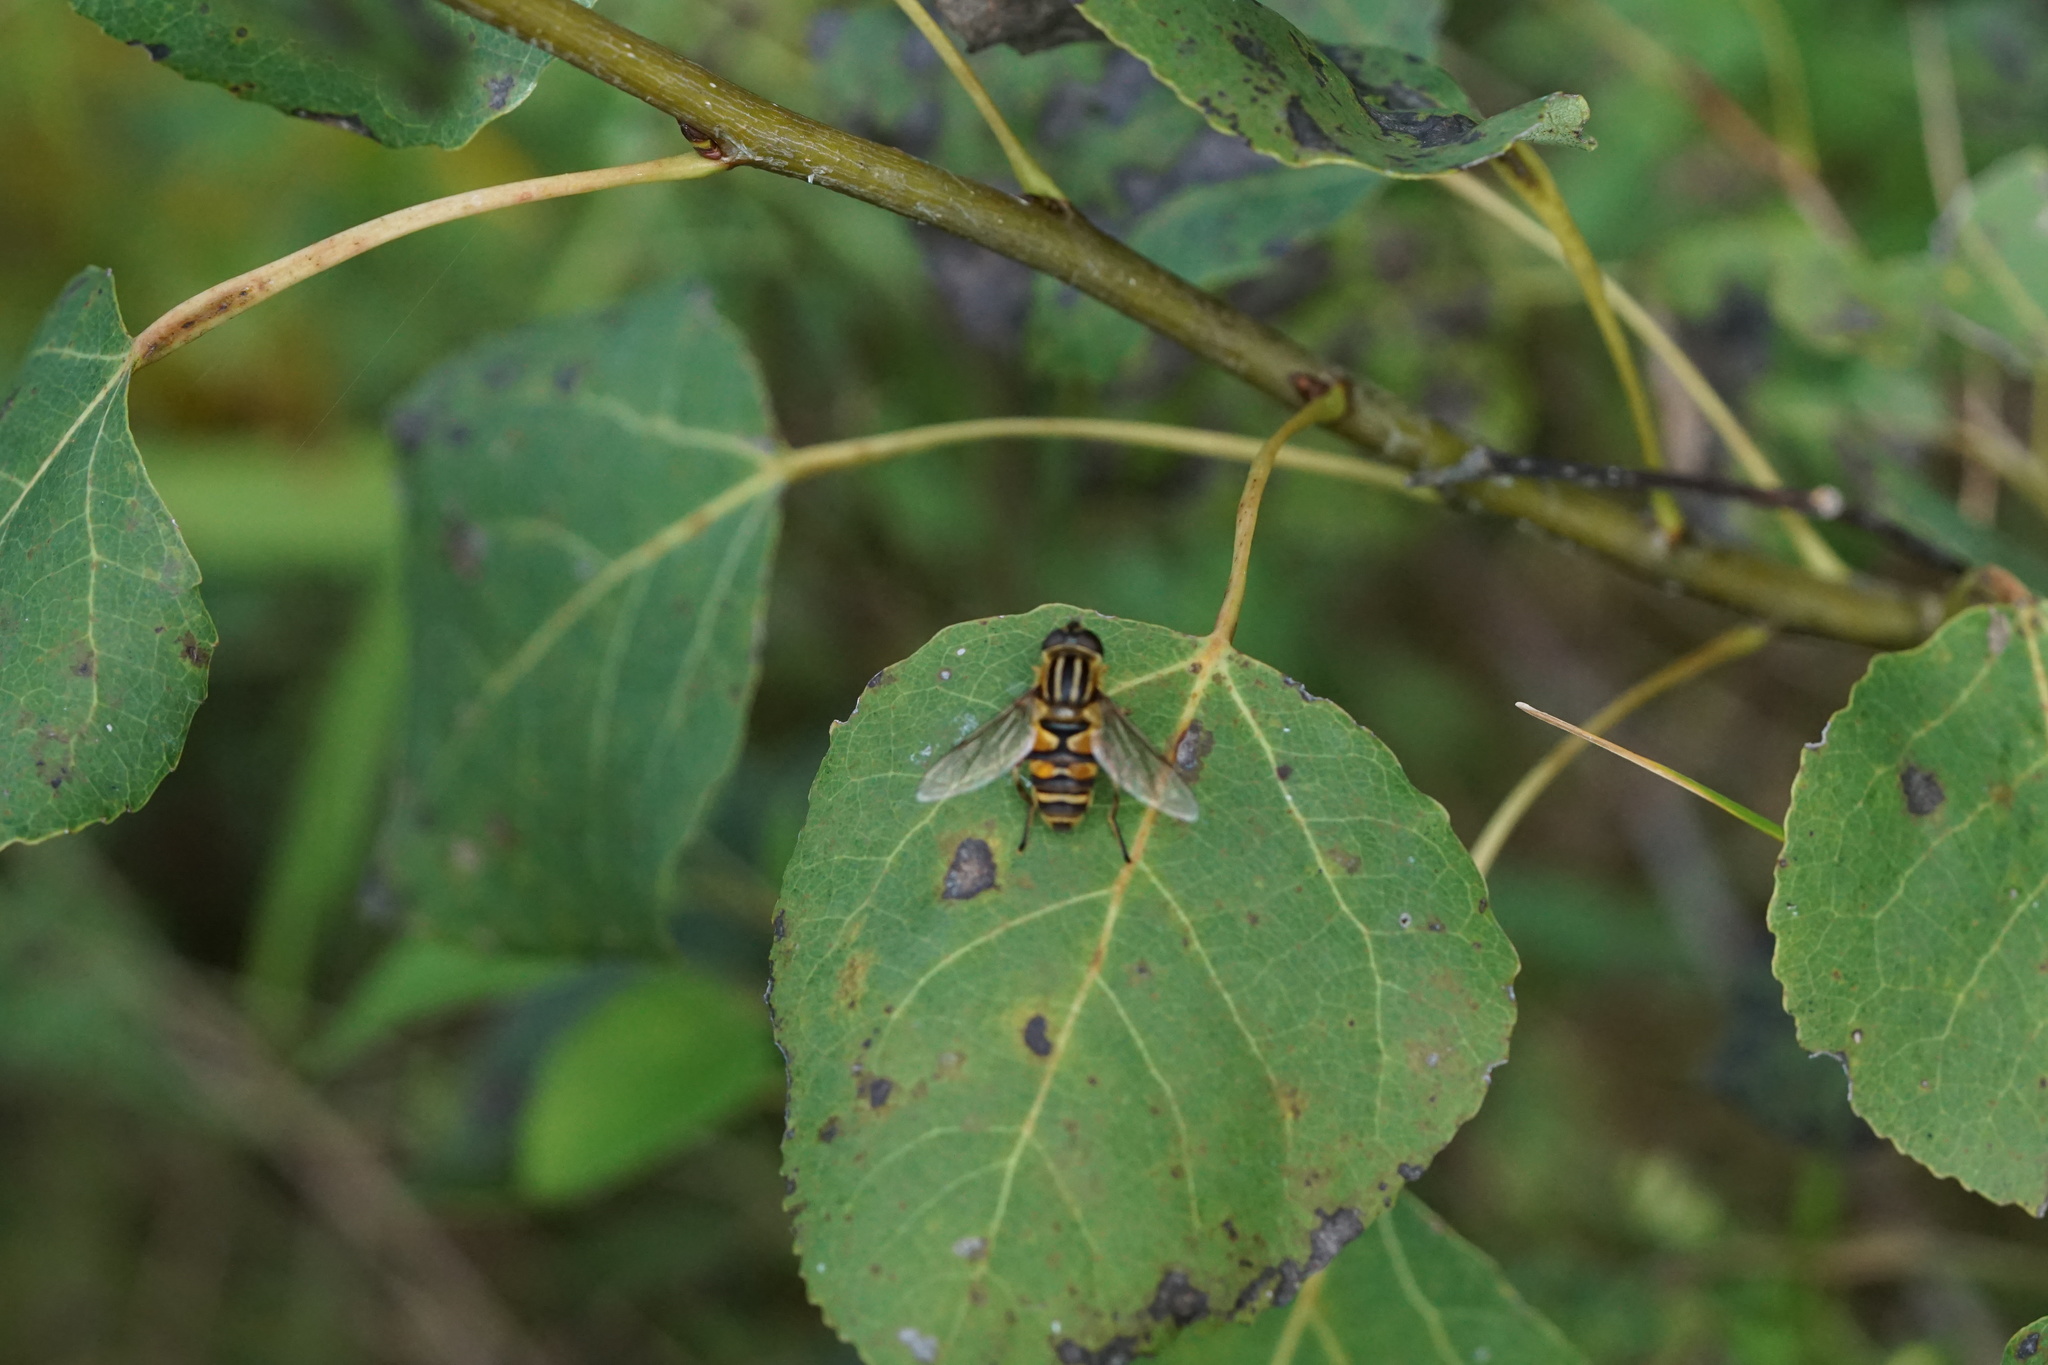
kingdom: Animalia
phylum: Arthropoda
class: Insecta
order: Diptera
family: Syrphidae
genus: Helophilus
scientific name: Helophilus fasciatus
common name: Narrow-headed marsh fly
